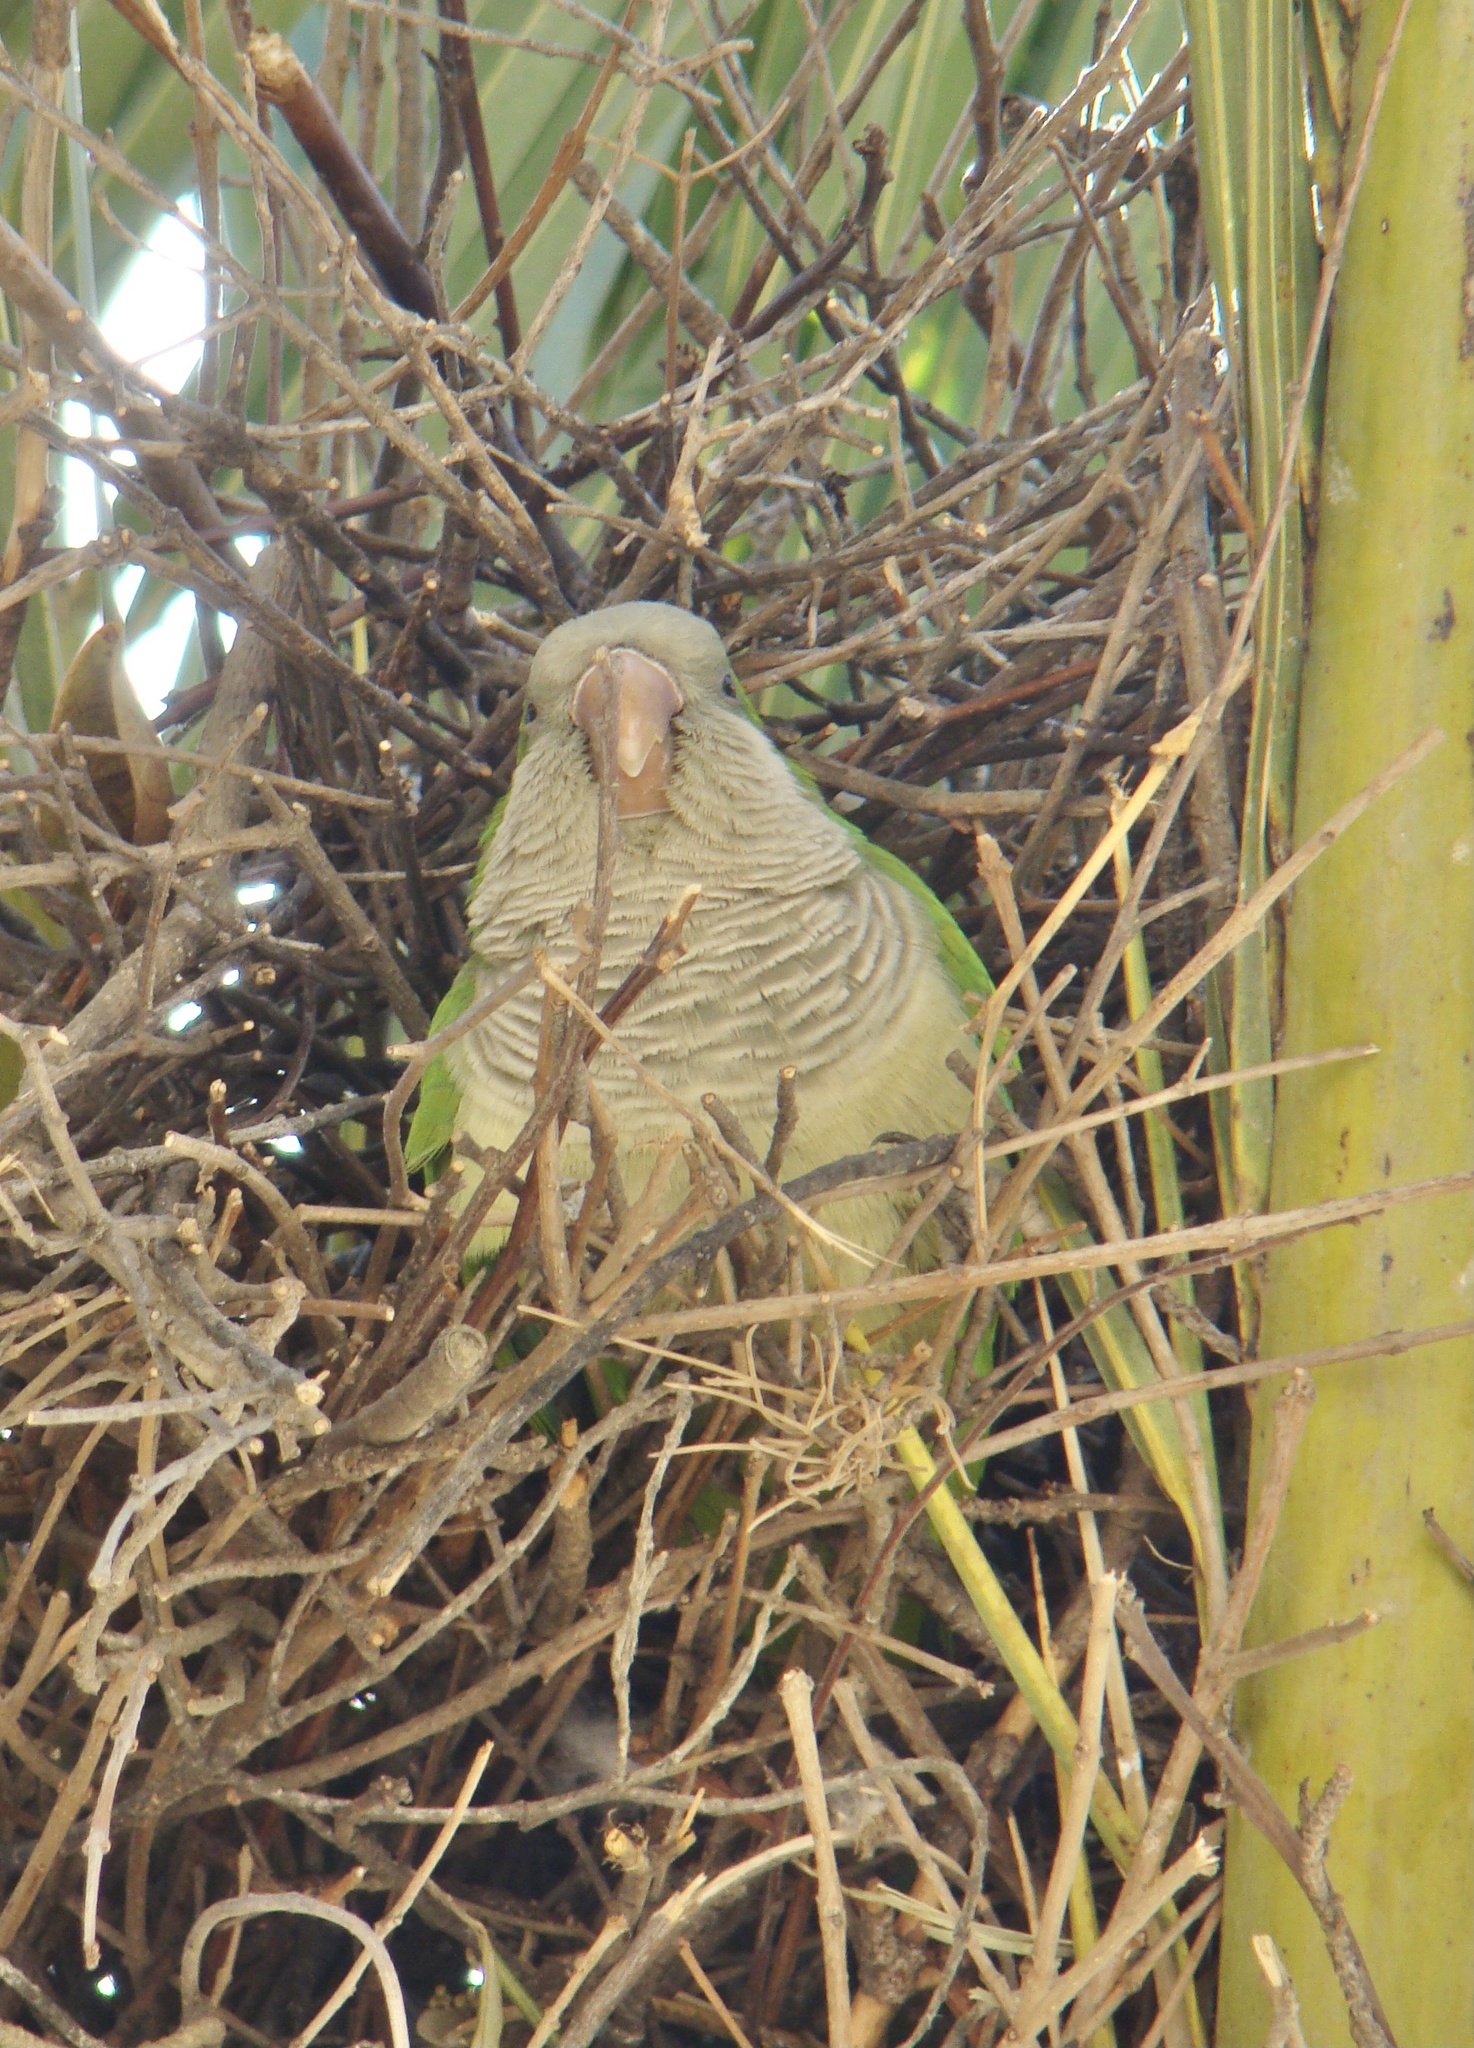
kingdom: Animalia
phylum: Chordata
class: Aves
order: Psittaciformes
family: Psittacidae
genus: Myiopsitta
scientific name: Myiopsitta monachus
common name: Monk parakeet
